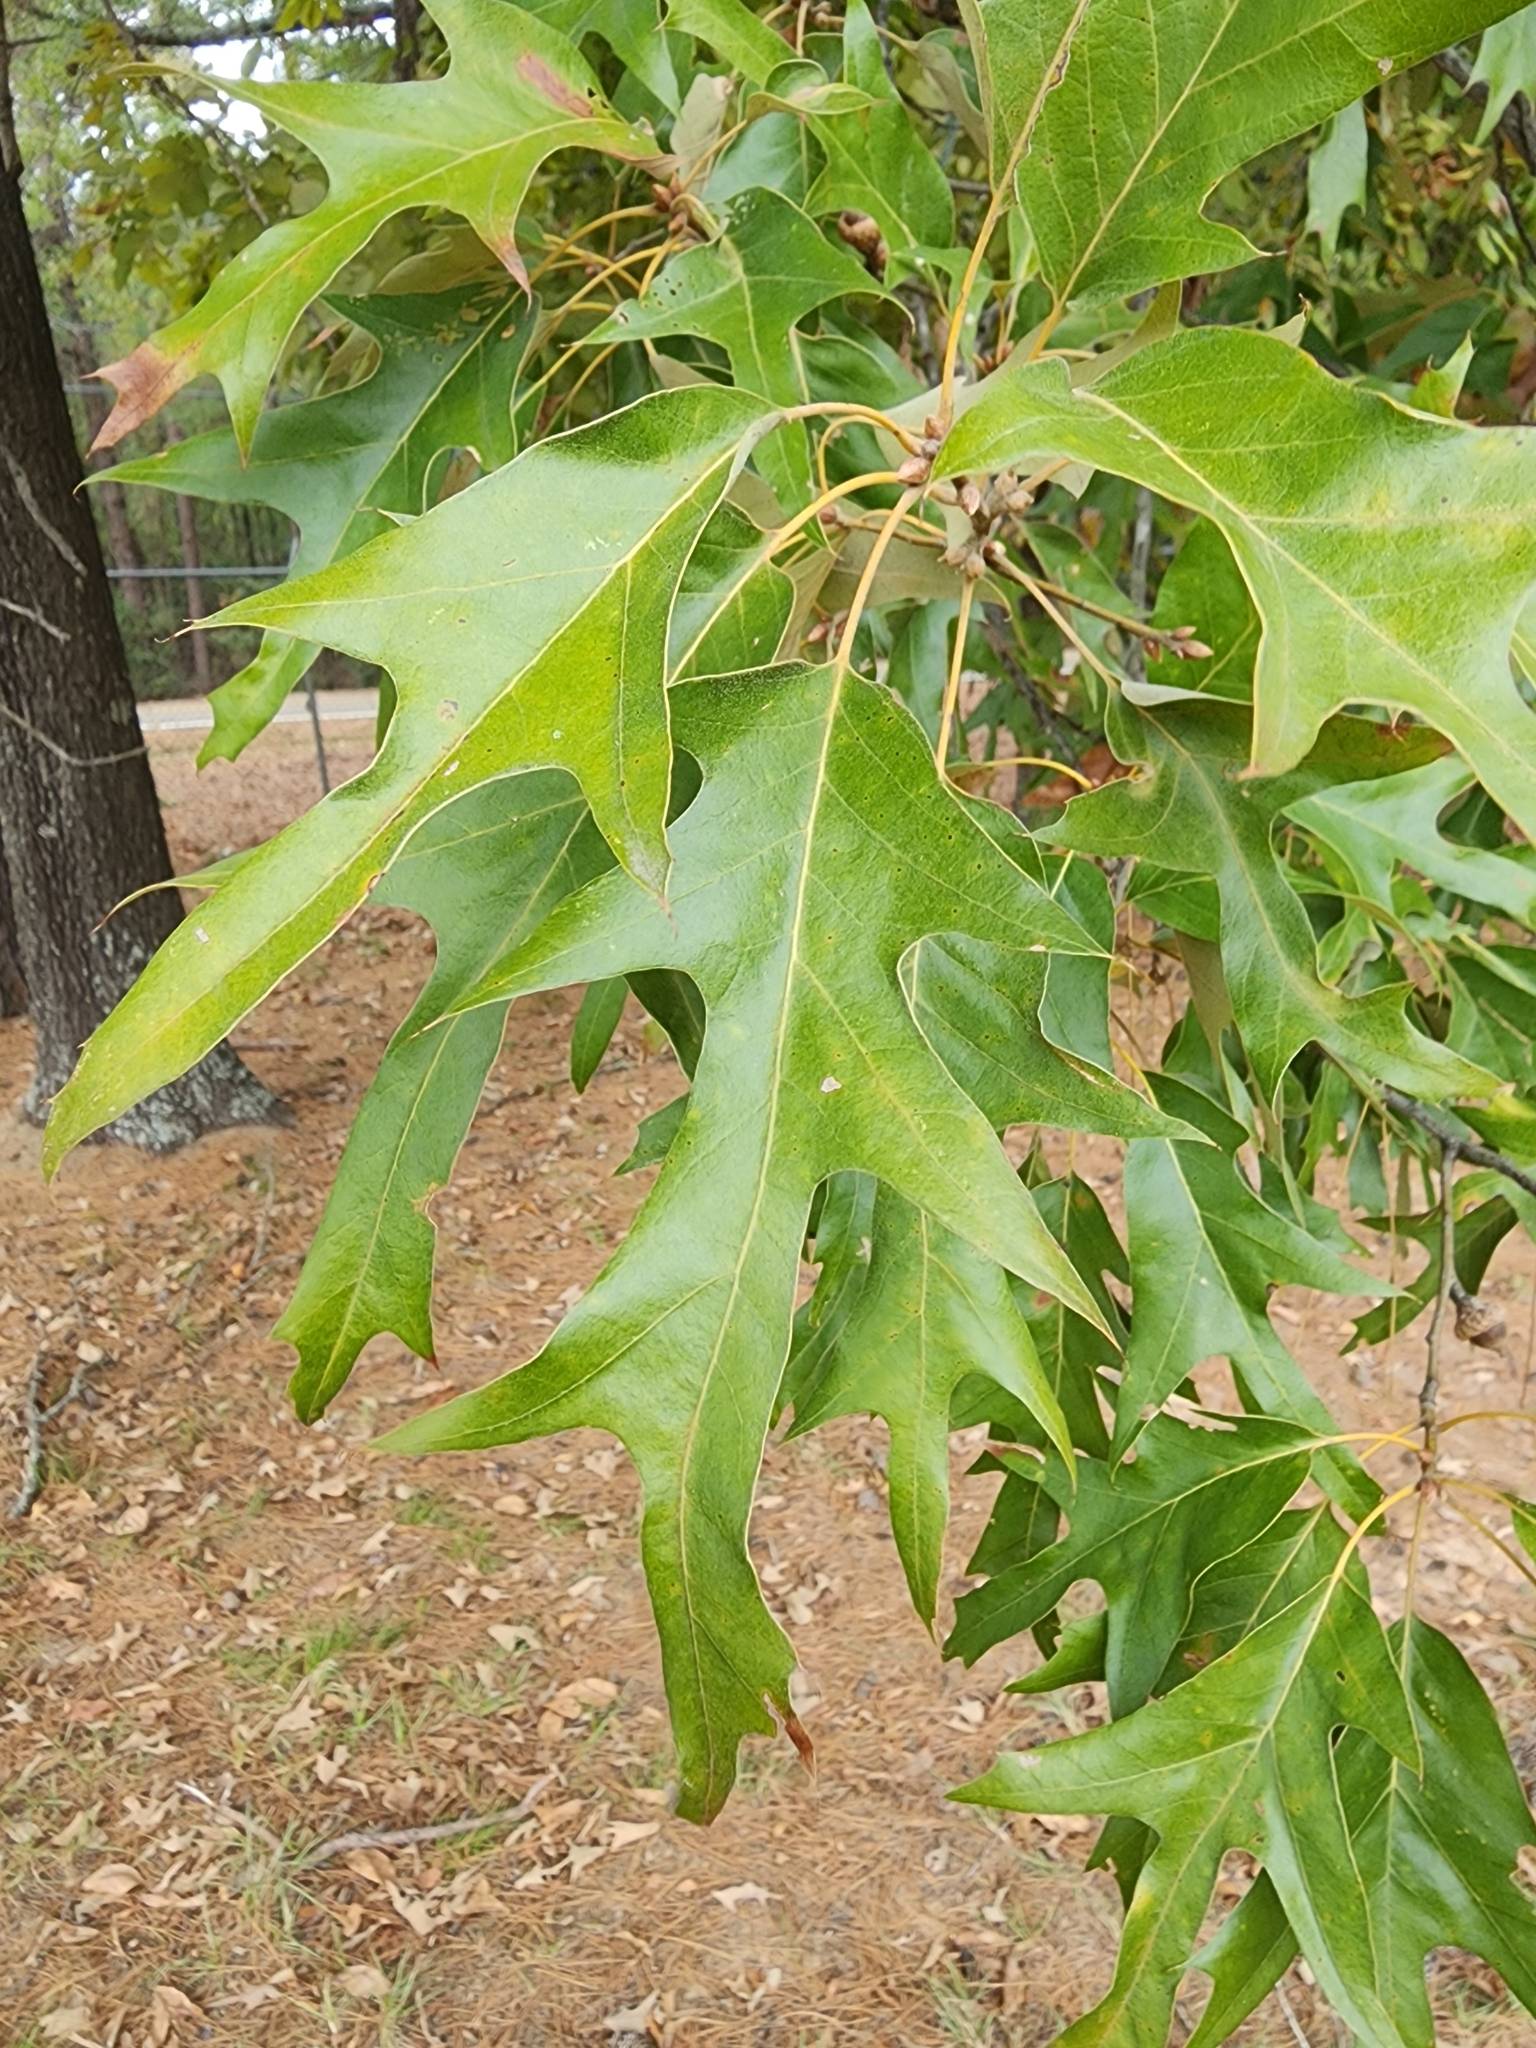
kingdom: Plantae
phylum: Tracheophyta
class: Magnoliopsida
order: Fagales
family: Fagaceae
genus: Quercus
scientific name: Quercus falcata
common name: Southern red oak
